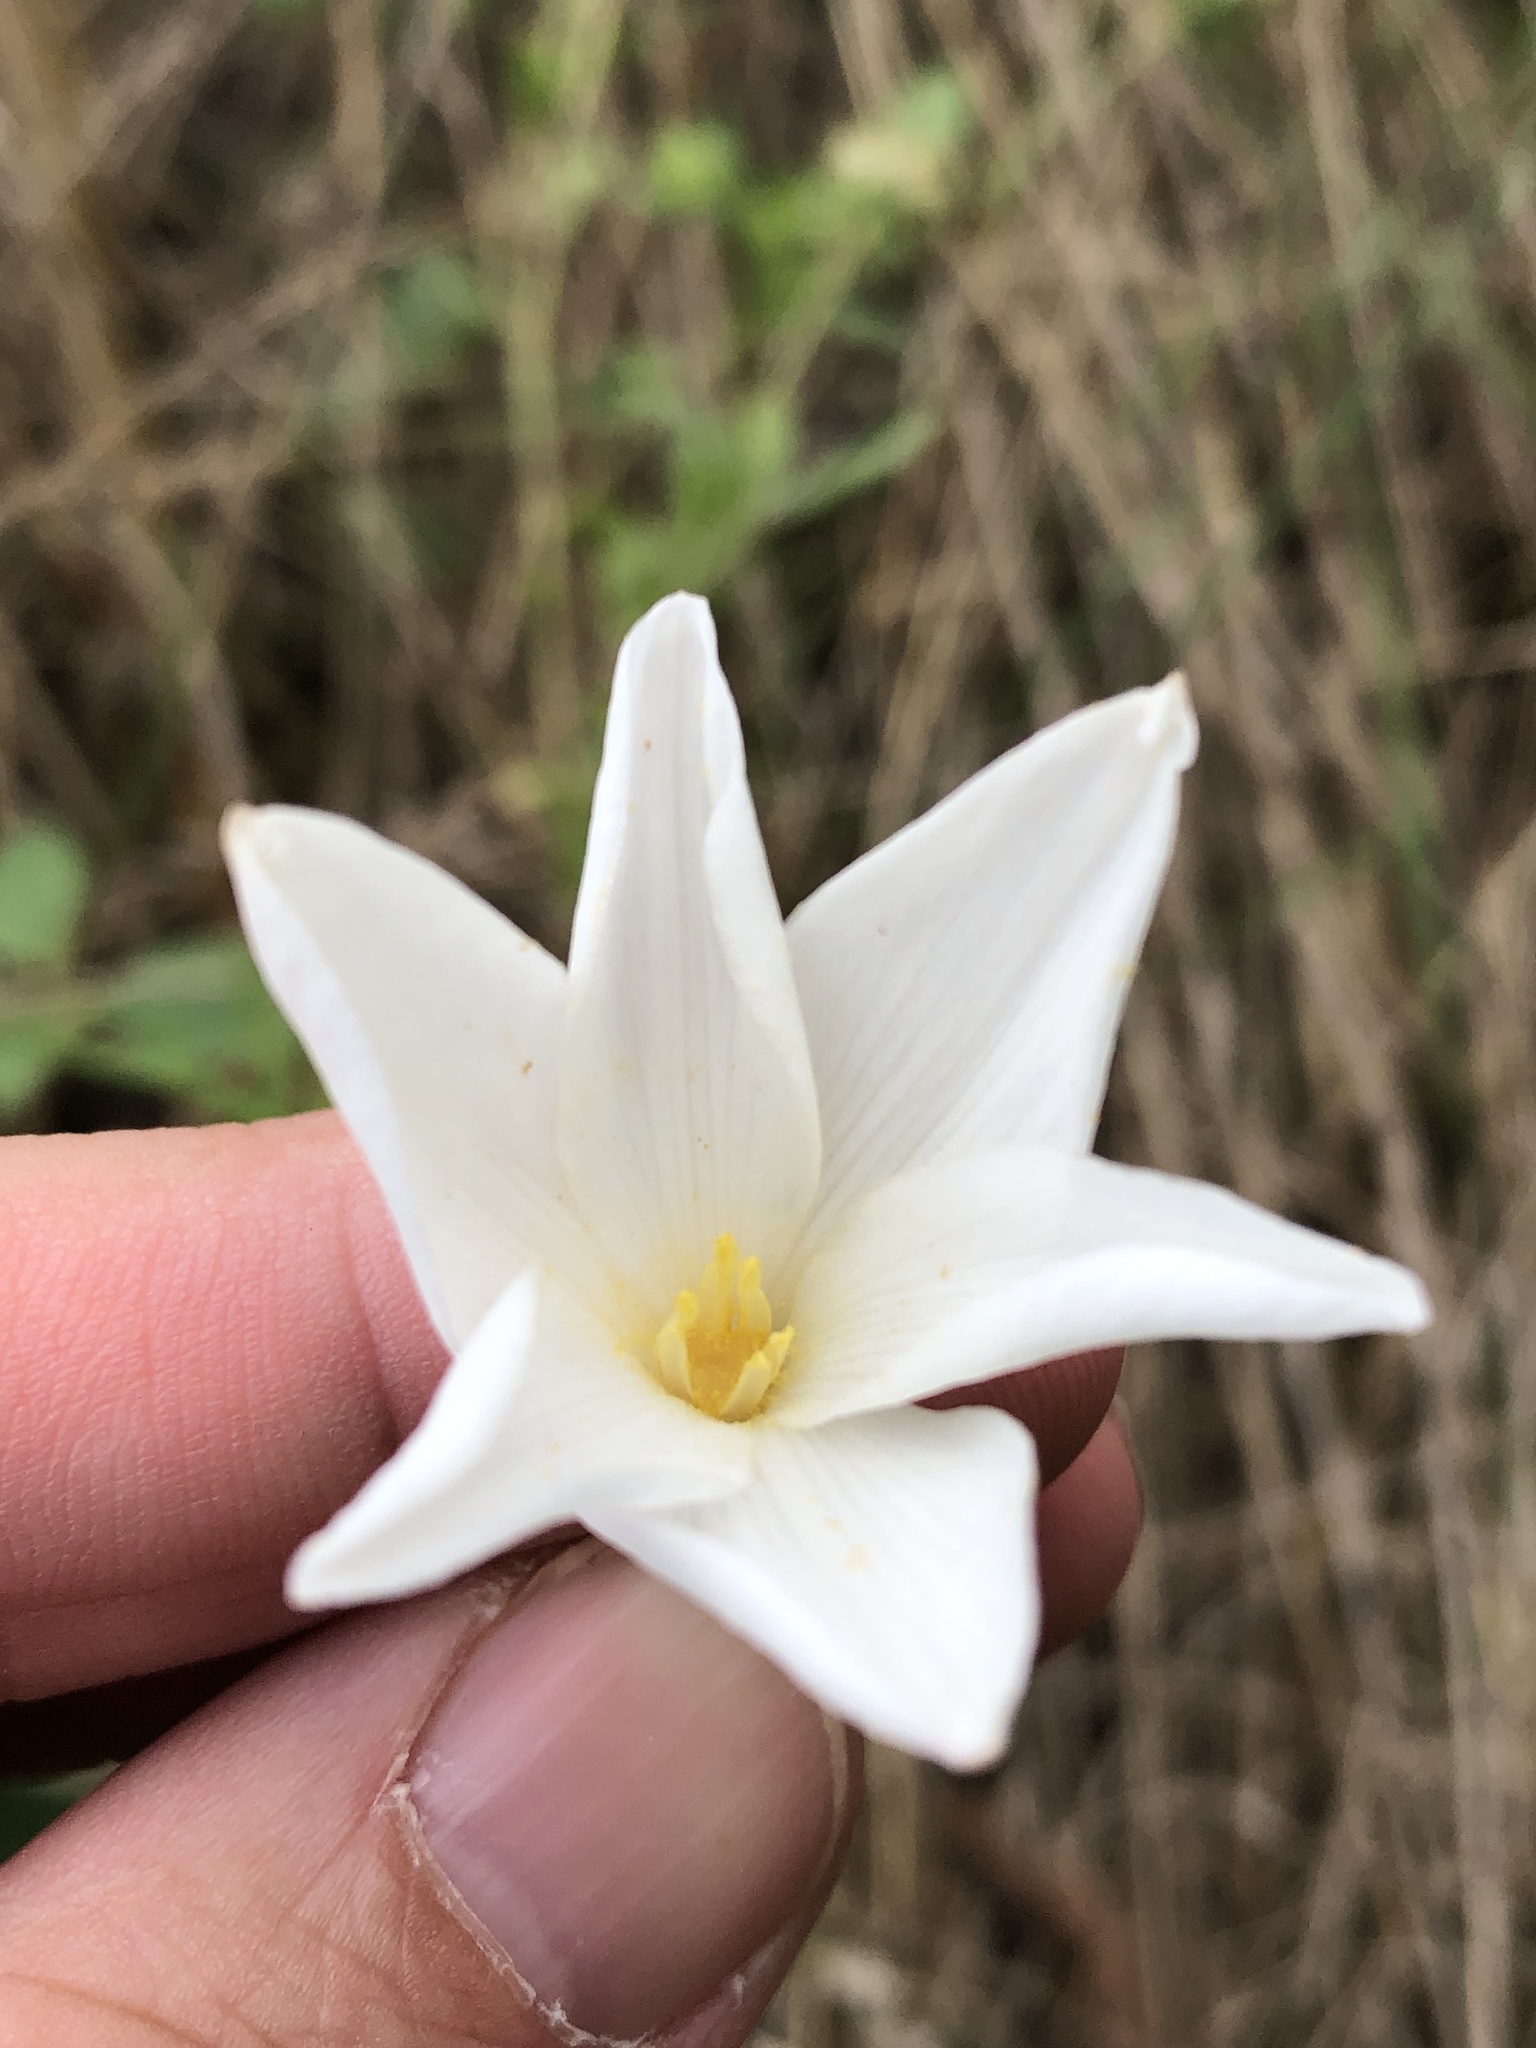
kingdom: Plantae
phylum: Tracheophyta
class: Liliopsida
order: Asparagales
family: Amaryllidaceae
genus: Zephyranthes
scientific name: Zephyranthes chlorosolen
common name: Evening rain-lily
